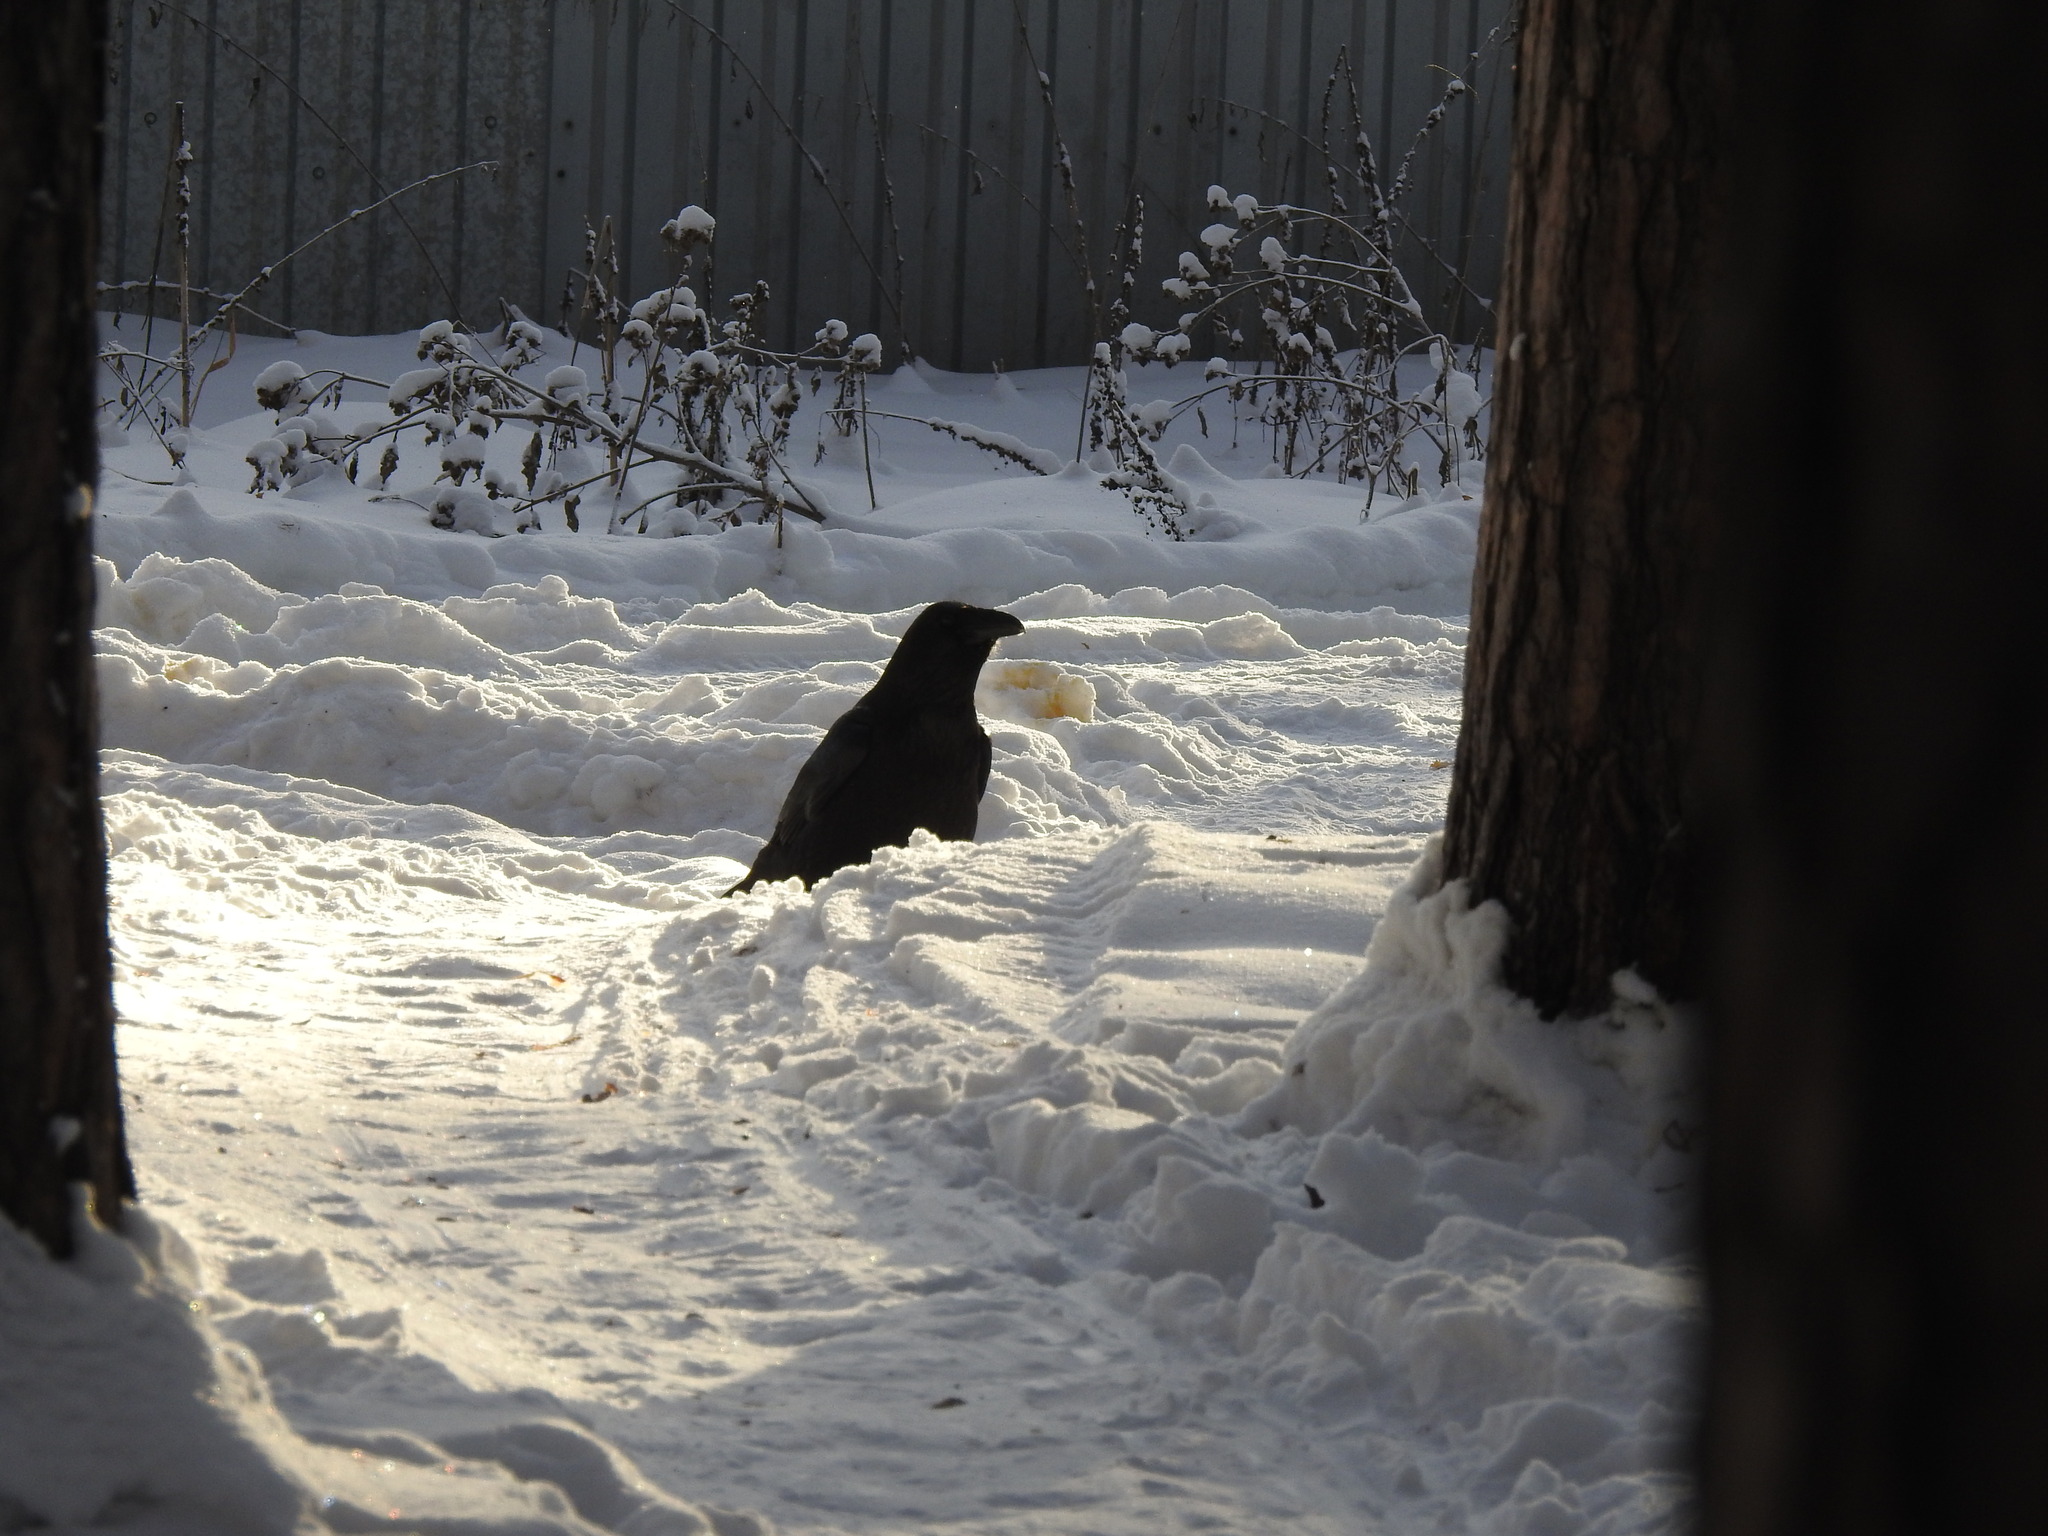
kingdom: Animalia
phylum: Chordata
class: Aves
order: Passeriformes
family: Corvidae
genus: Corvus
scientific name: Corvus corax
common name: Common raven
